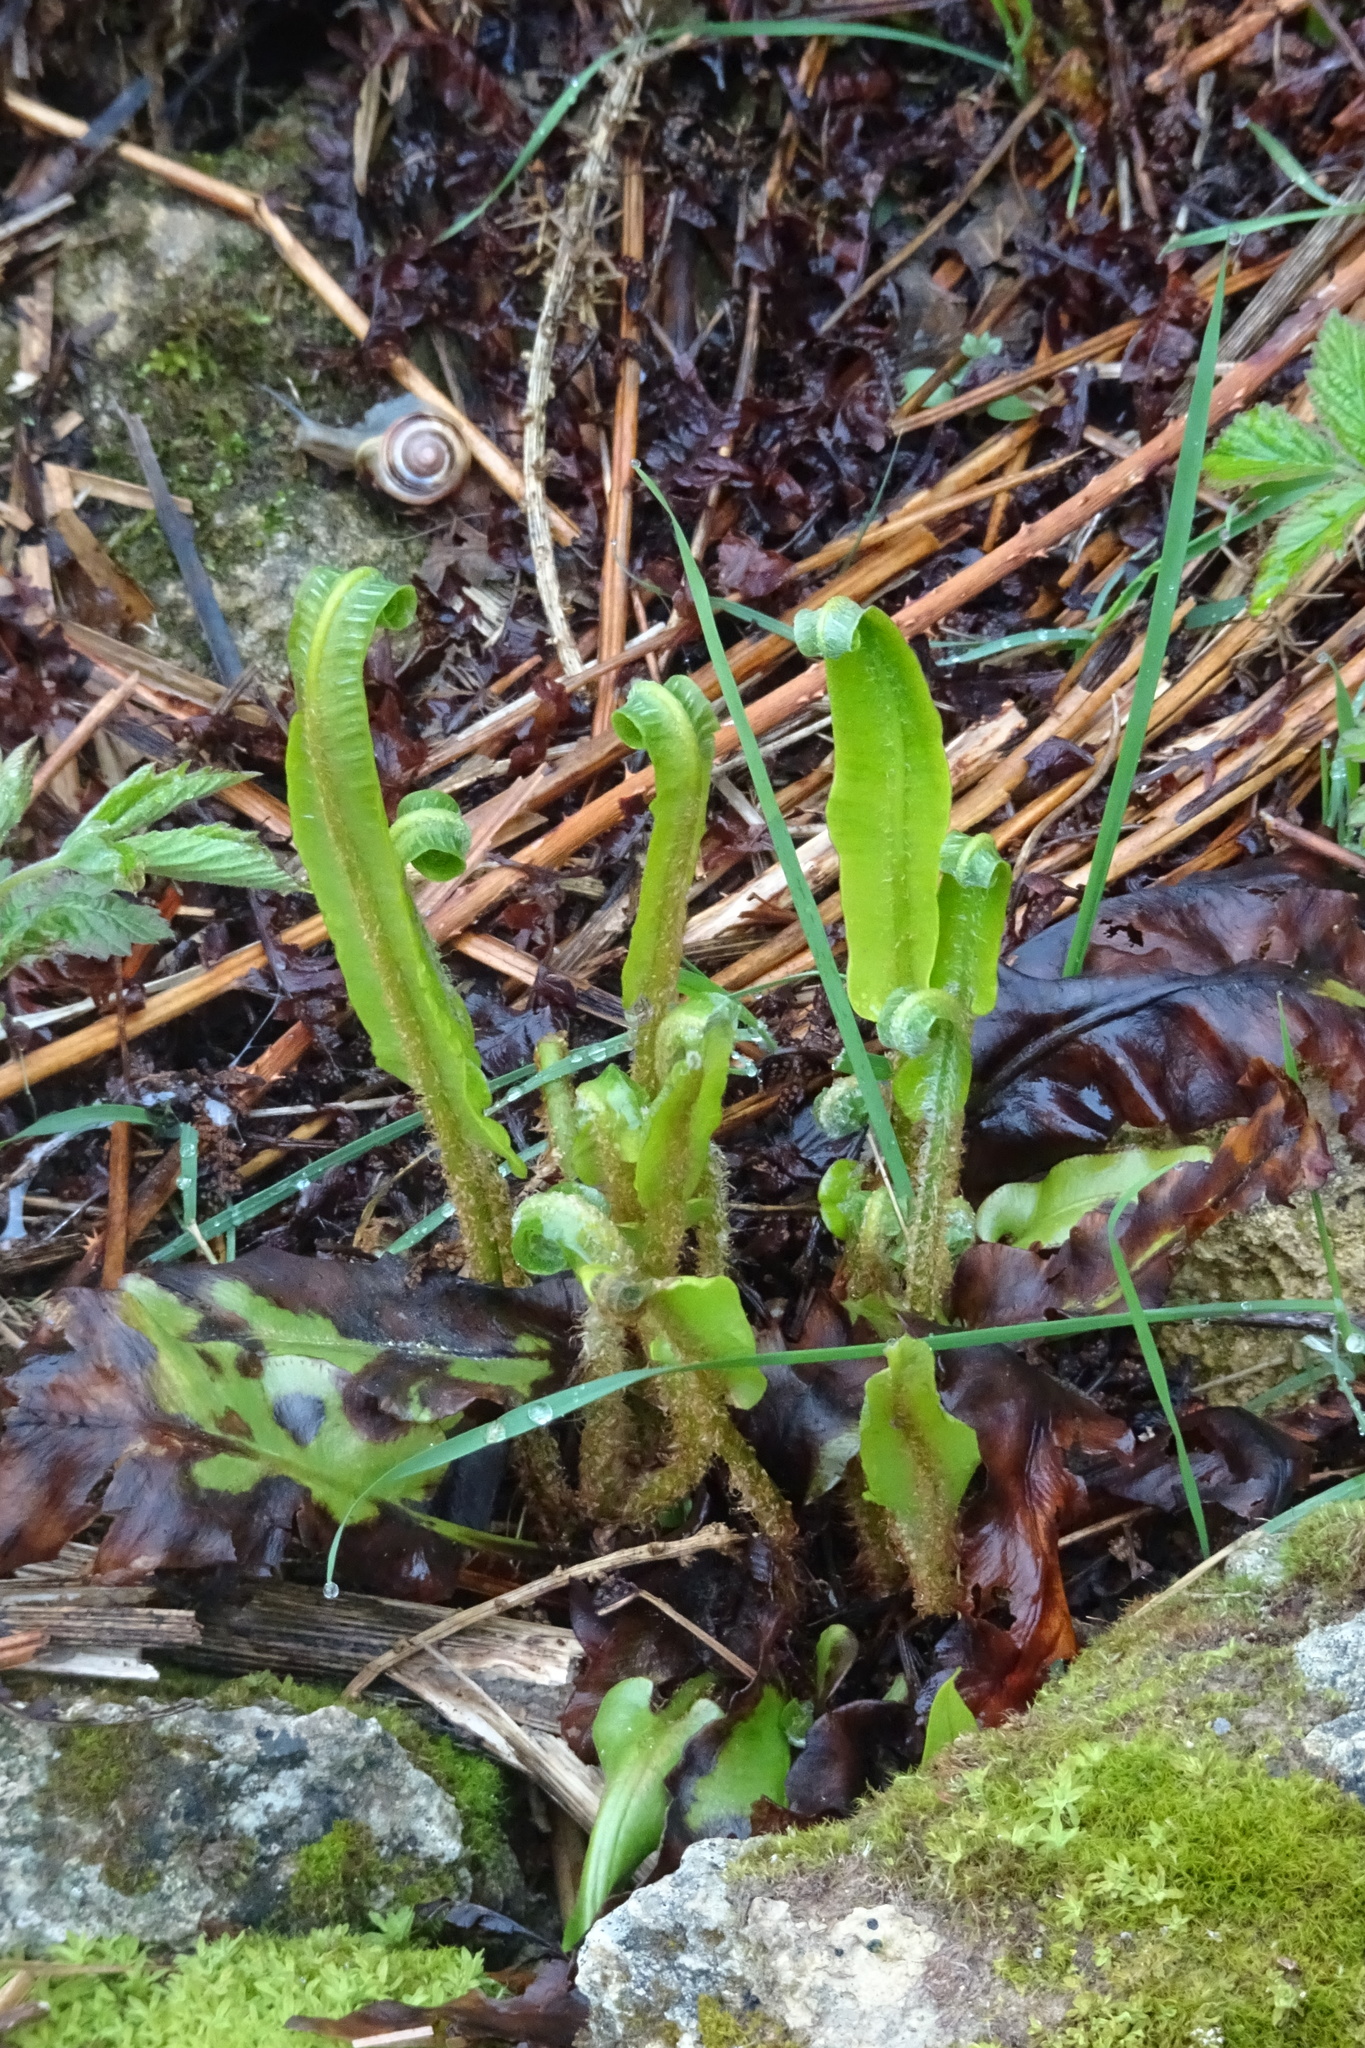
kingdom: Plantae
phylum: Tracheophyta
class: Polypodiopsida
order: Polypodiales
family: Aspleniaceae
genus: Asplenium
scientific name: Asplenium scolopendrium
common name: Hart's-tongue fern
